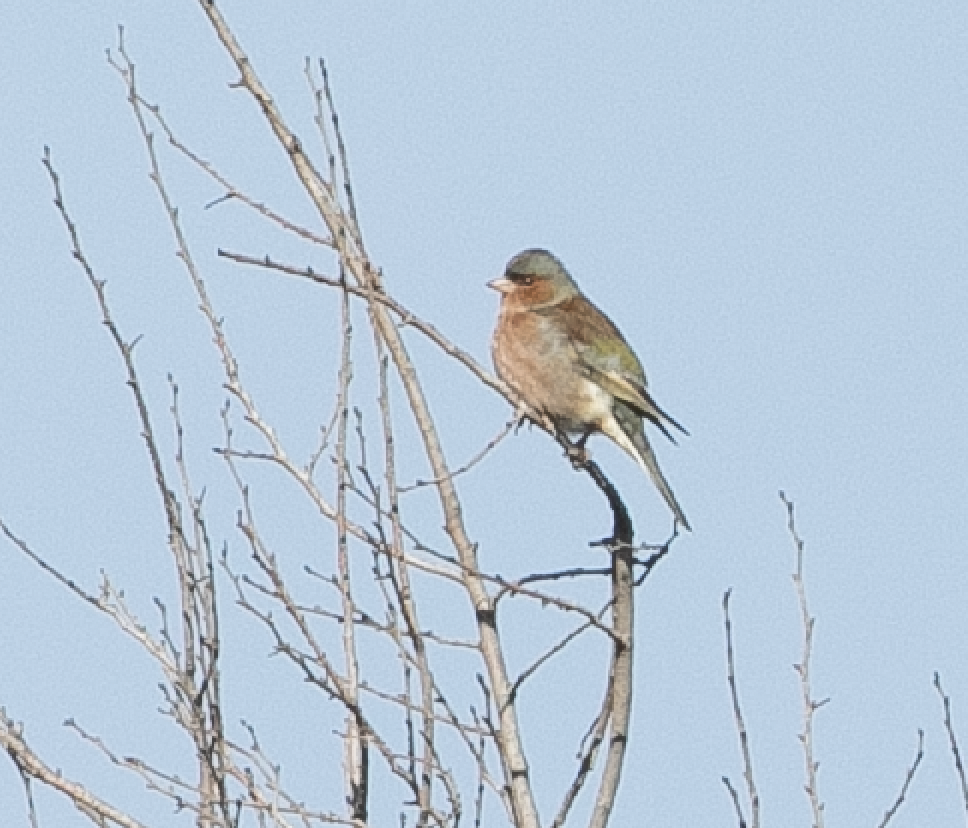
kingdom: Animalia
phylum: Chordata
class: Aves
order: Passeriformes
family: Fringillidae
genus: Fringilla
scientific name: Fringilla coelebs
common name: Common chaffinch
